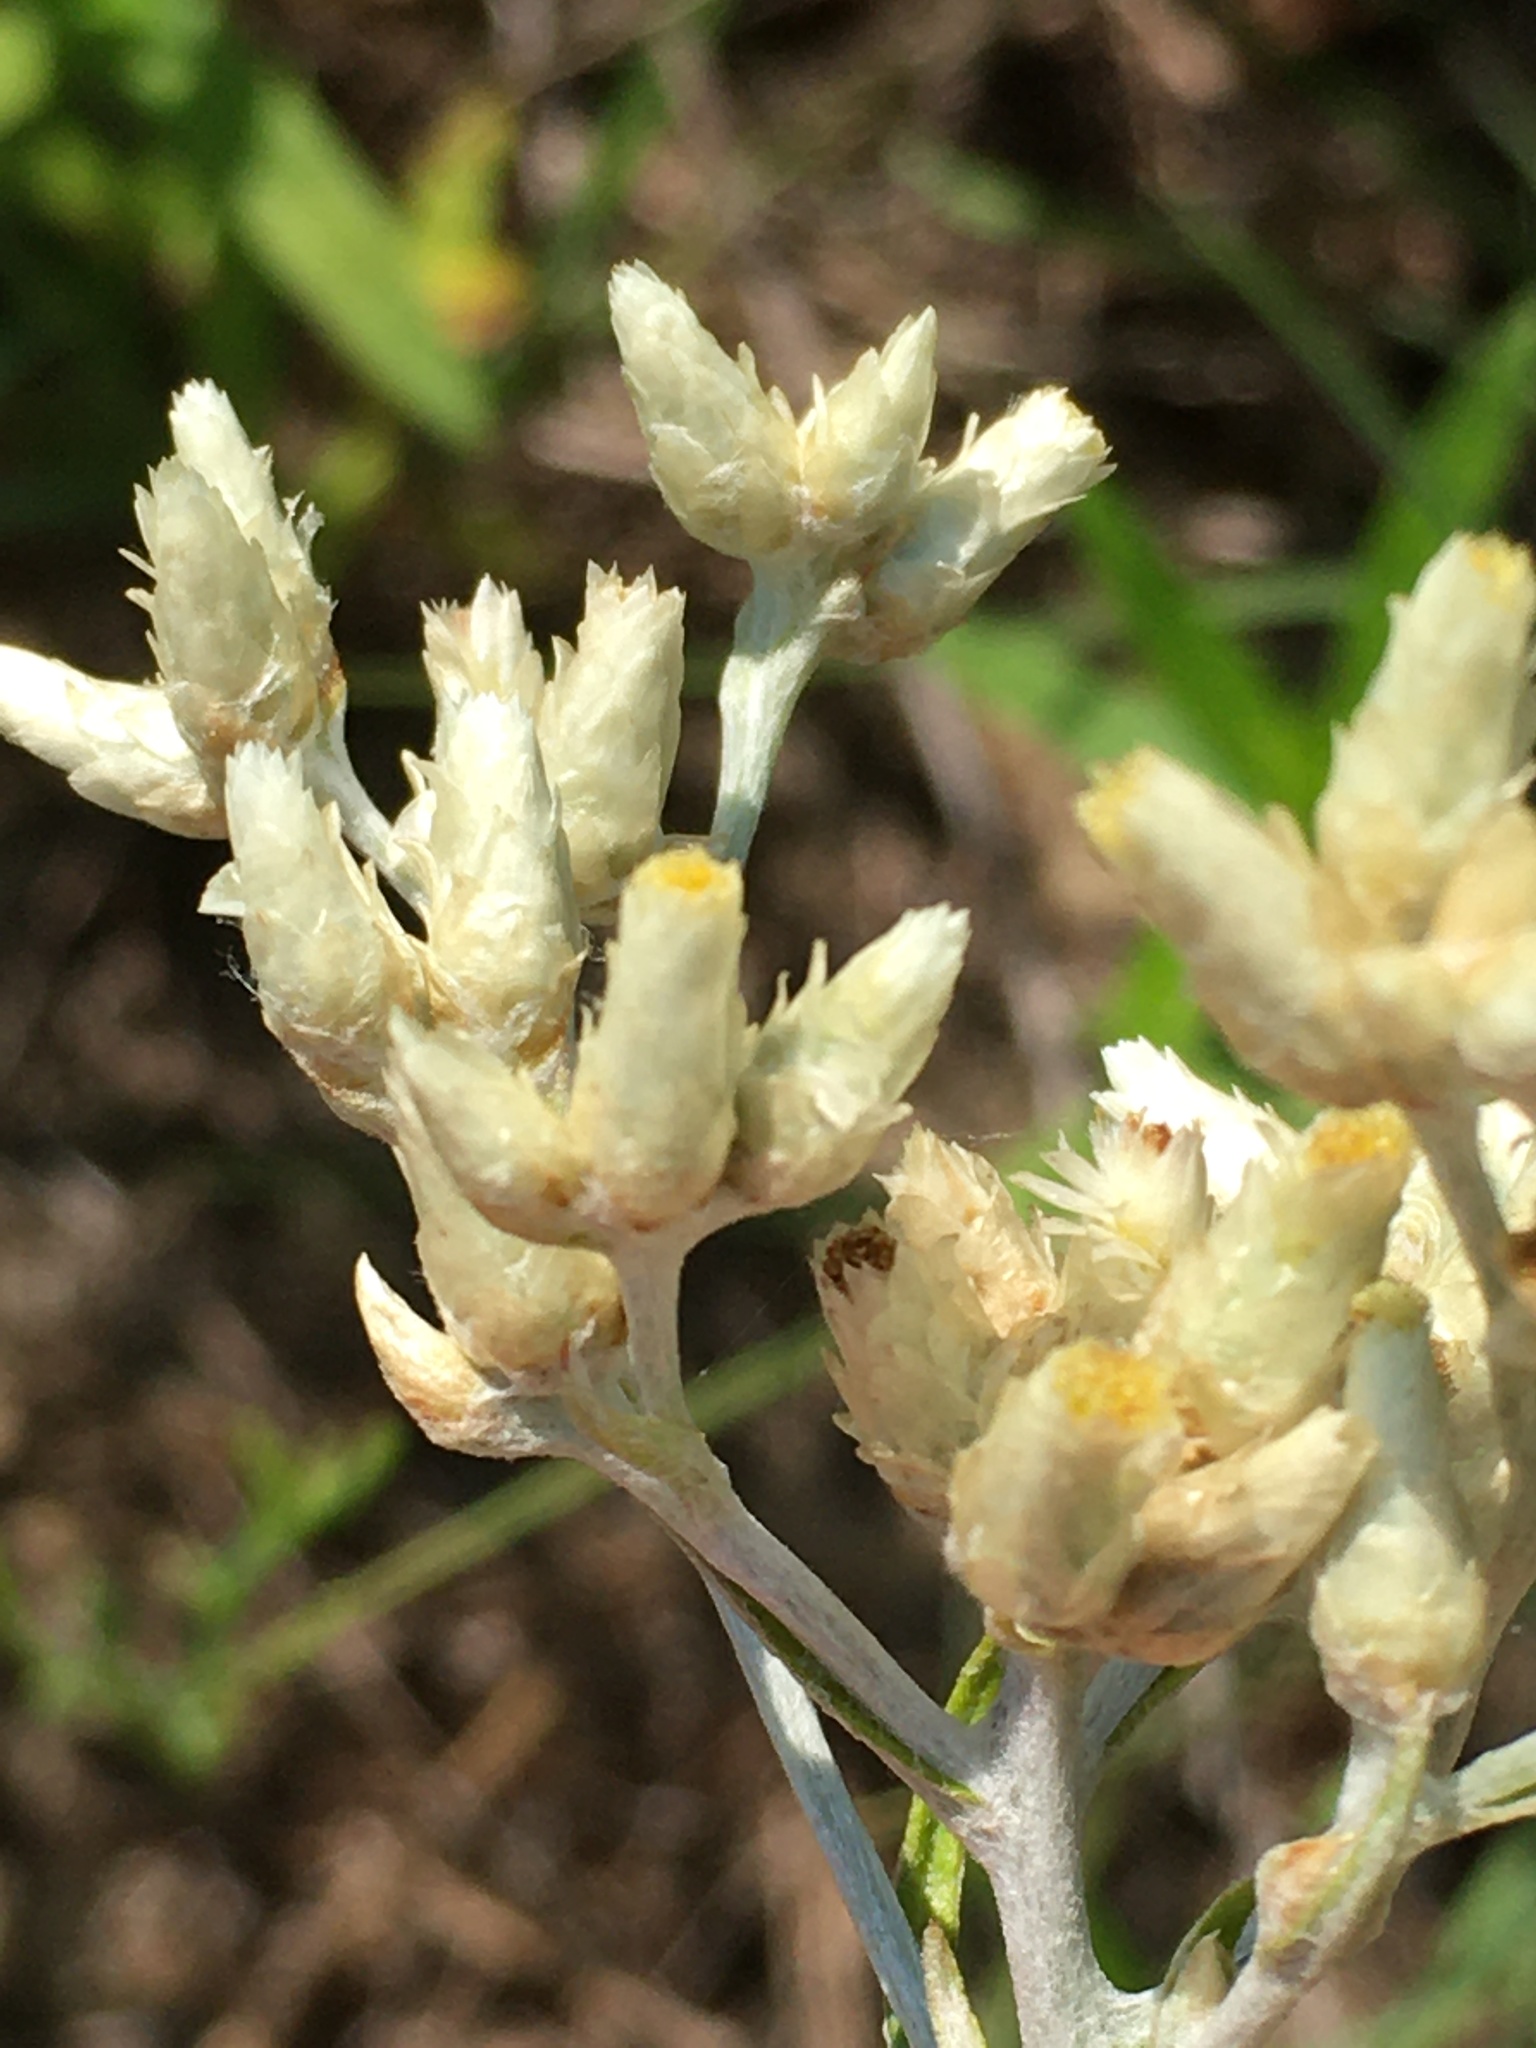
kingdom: Plantae
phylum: Tracheophyta
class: Magnoliopsida
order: Asterales
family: Asteraceae
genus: Pseudognaphalium
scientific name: Pseudognaphalium obtusifolium
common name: Eastern rabbit-tobacco
